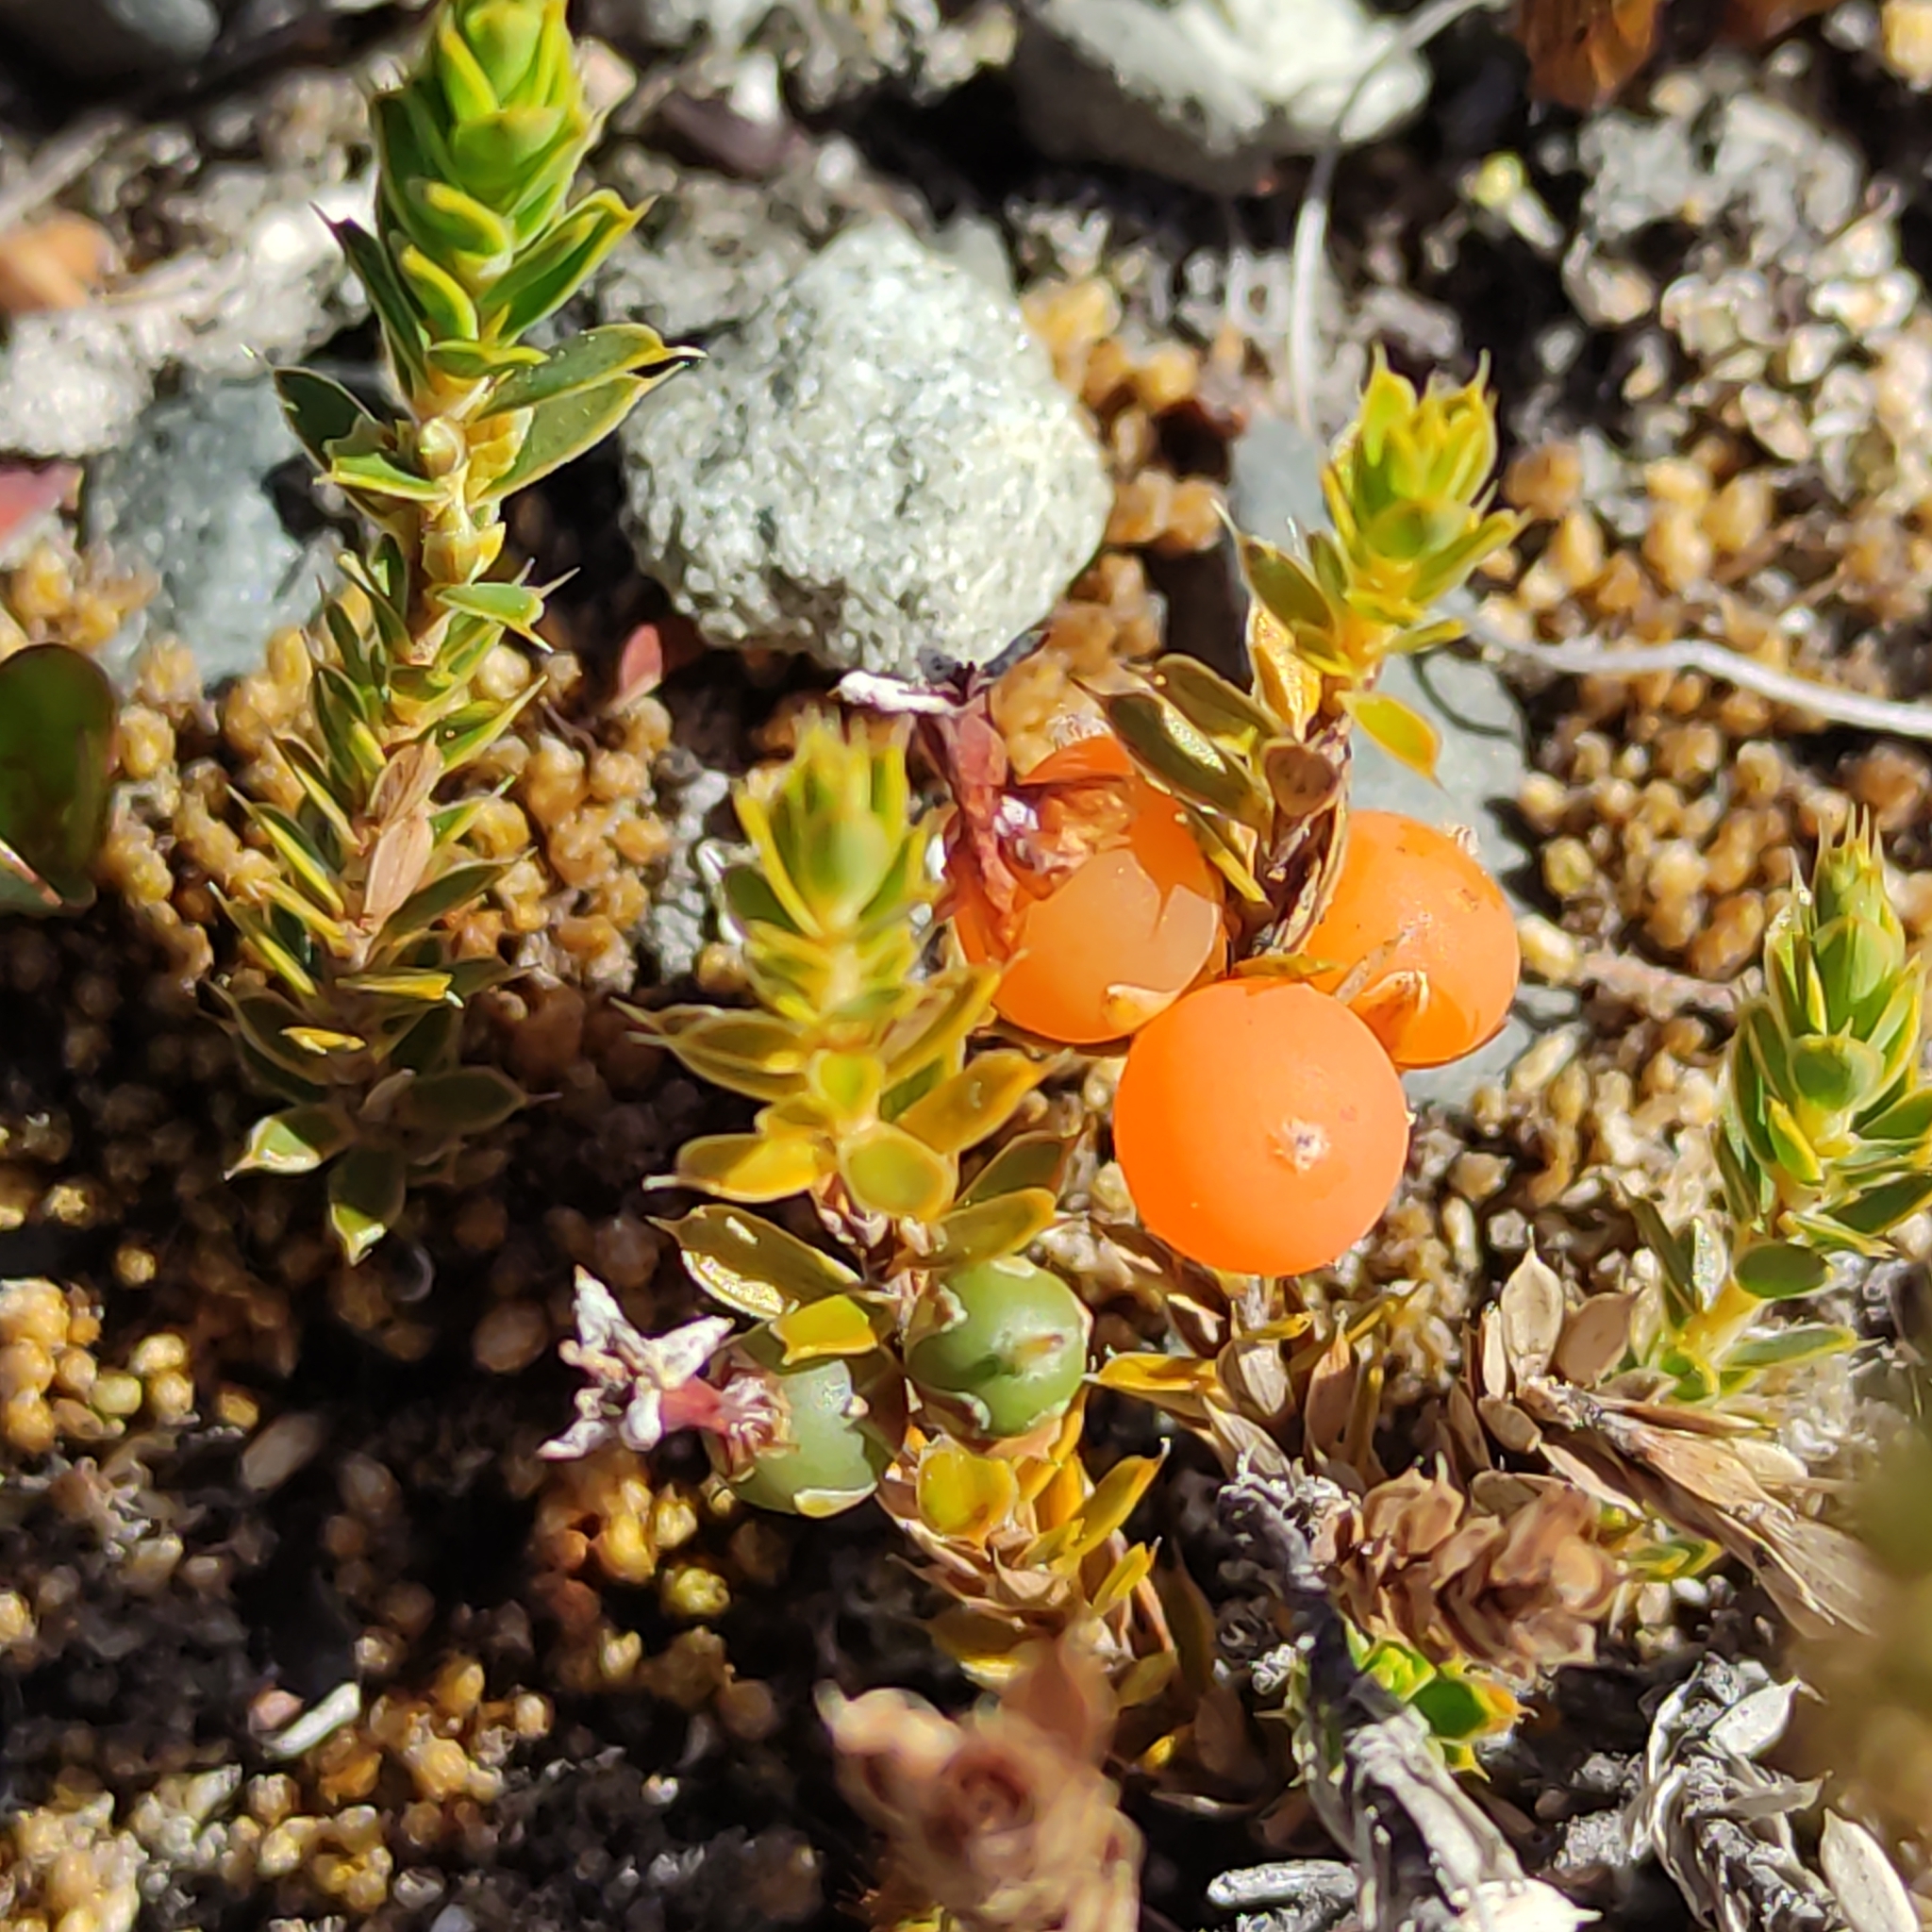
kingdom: Plantae
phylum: Tracheophyta
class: Magnoliopsida
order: Ericales
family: Ericaceae
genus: Styphelia
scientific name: Styphelia nesophila
